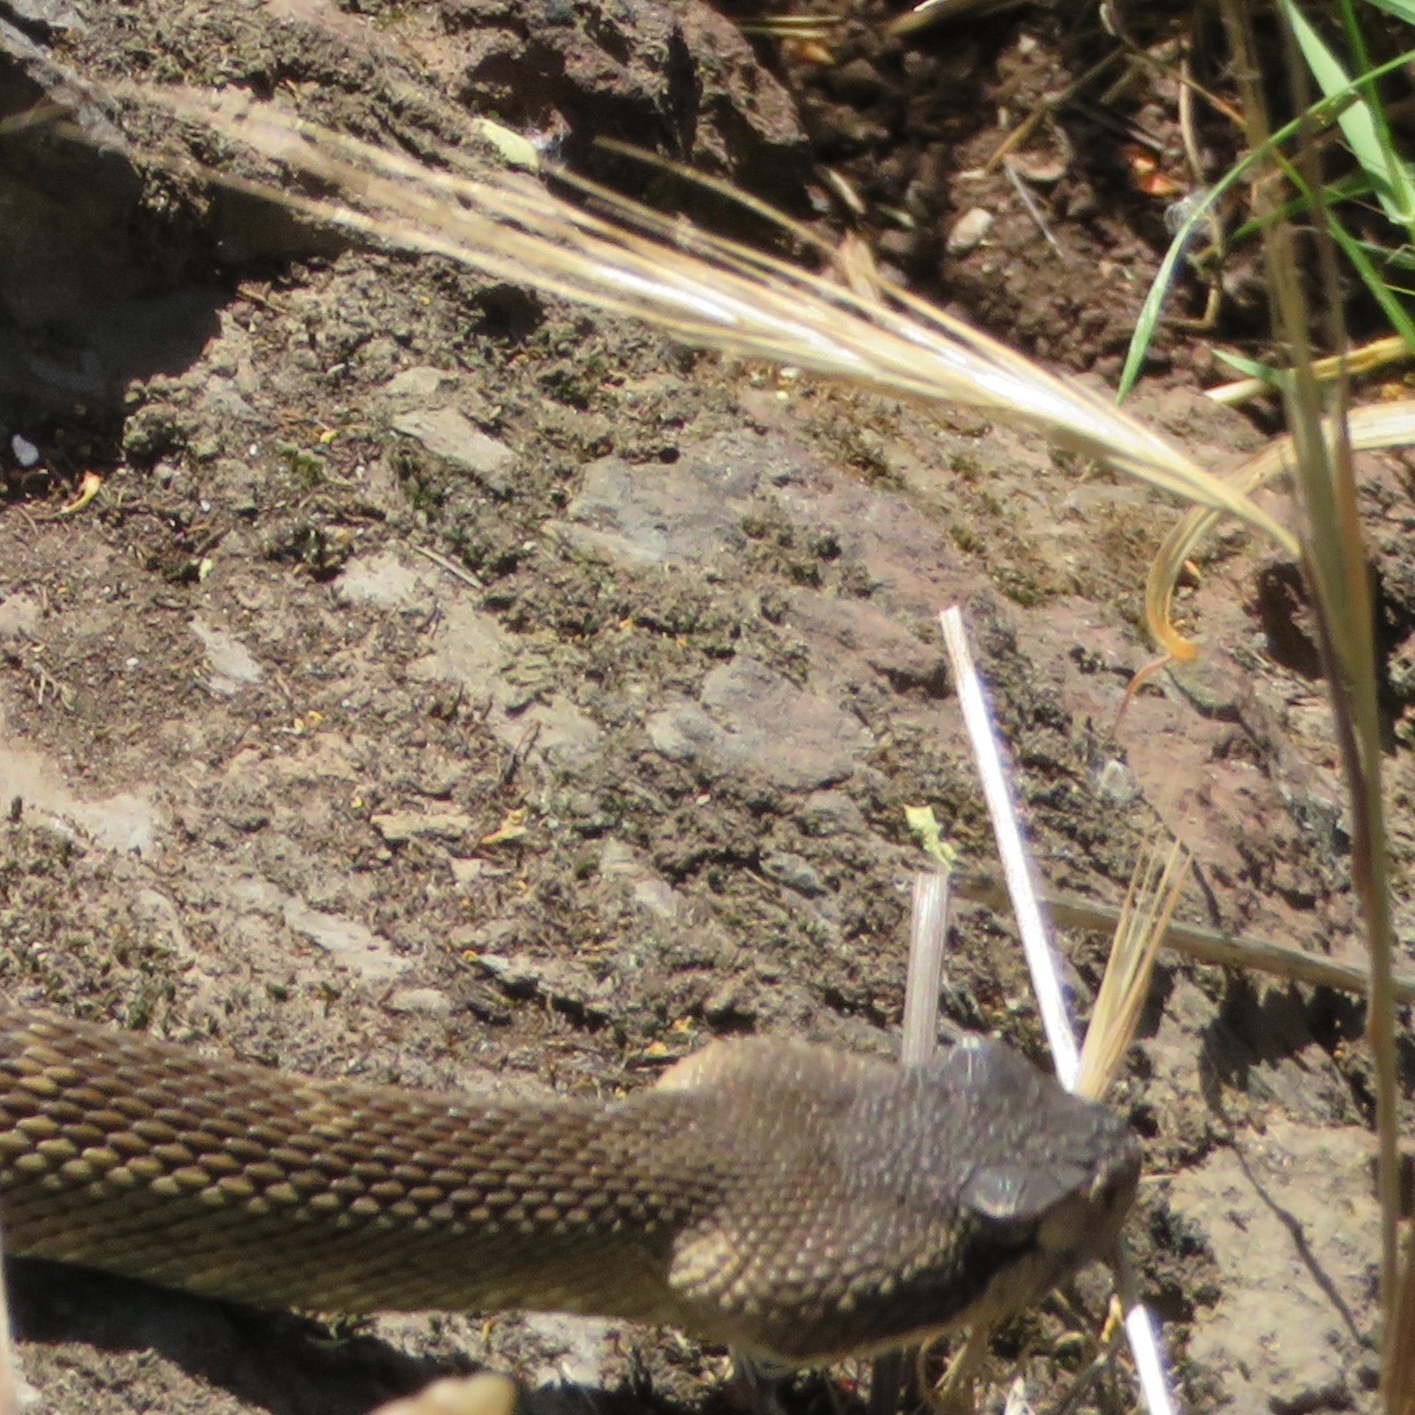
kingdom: Animalia
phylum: Chordata
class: Squamata
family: Viperidae
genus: Crotalus
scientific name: Crotalus oreganus
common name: Abyssus
